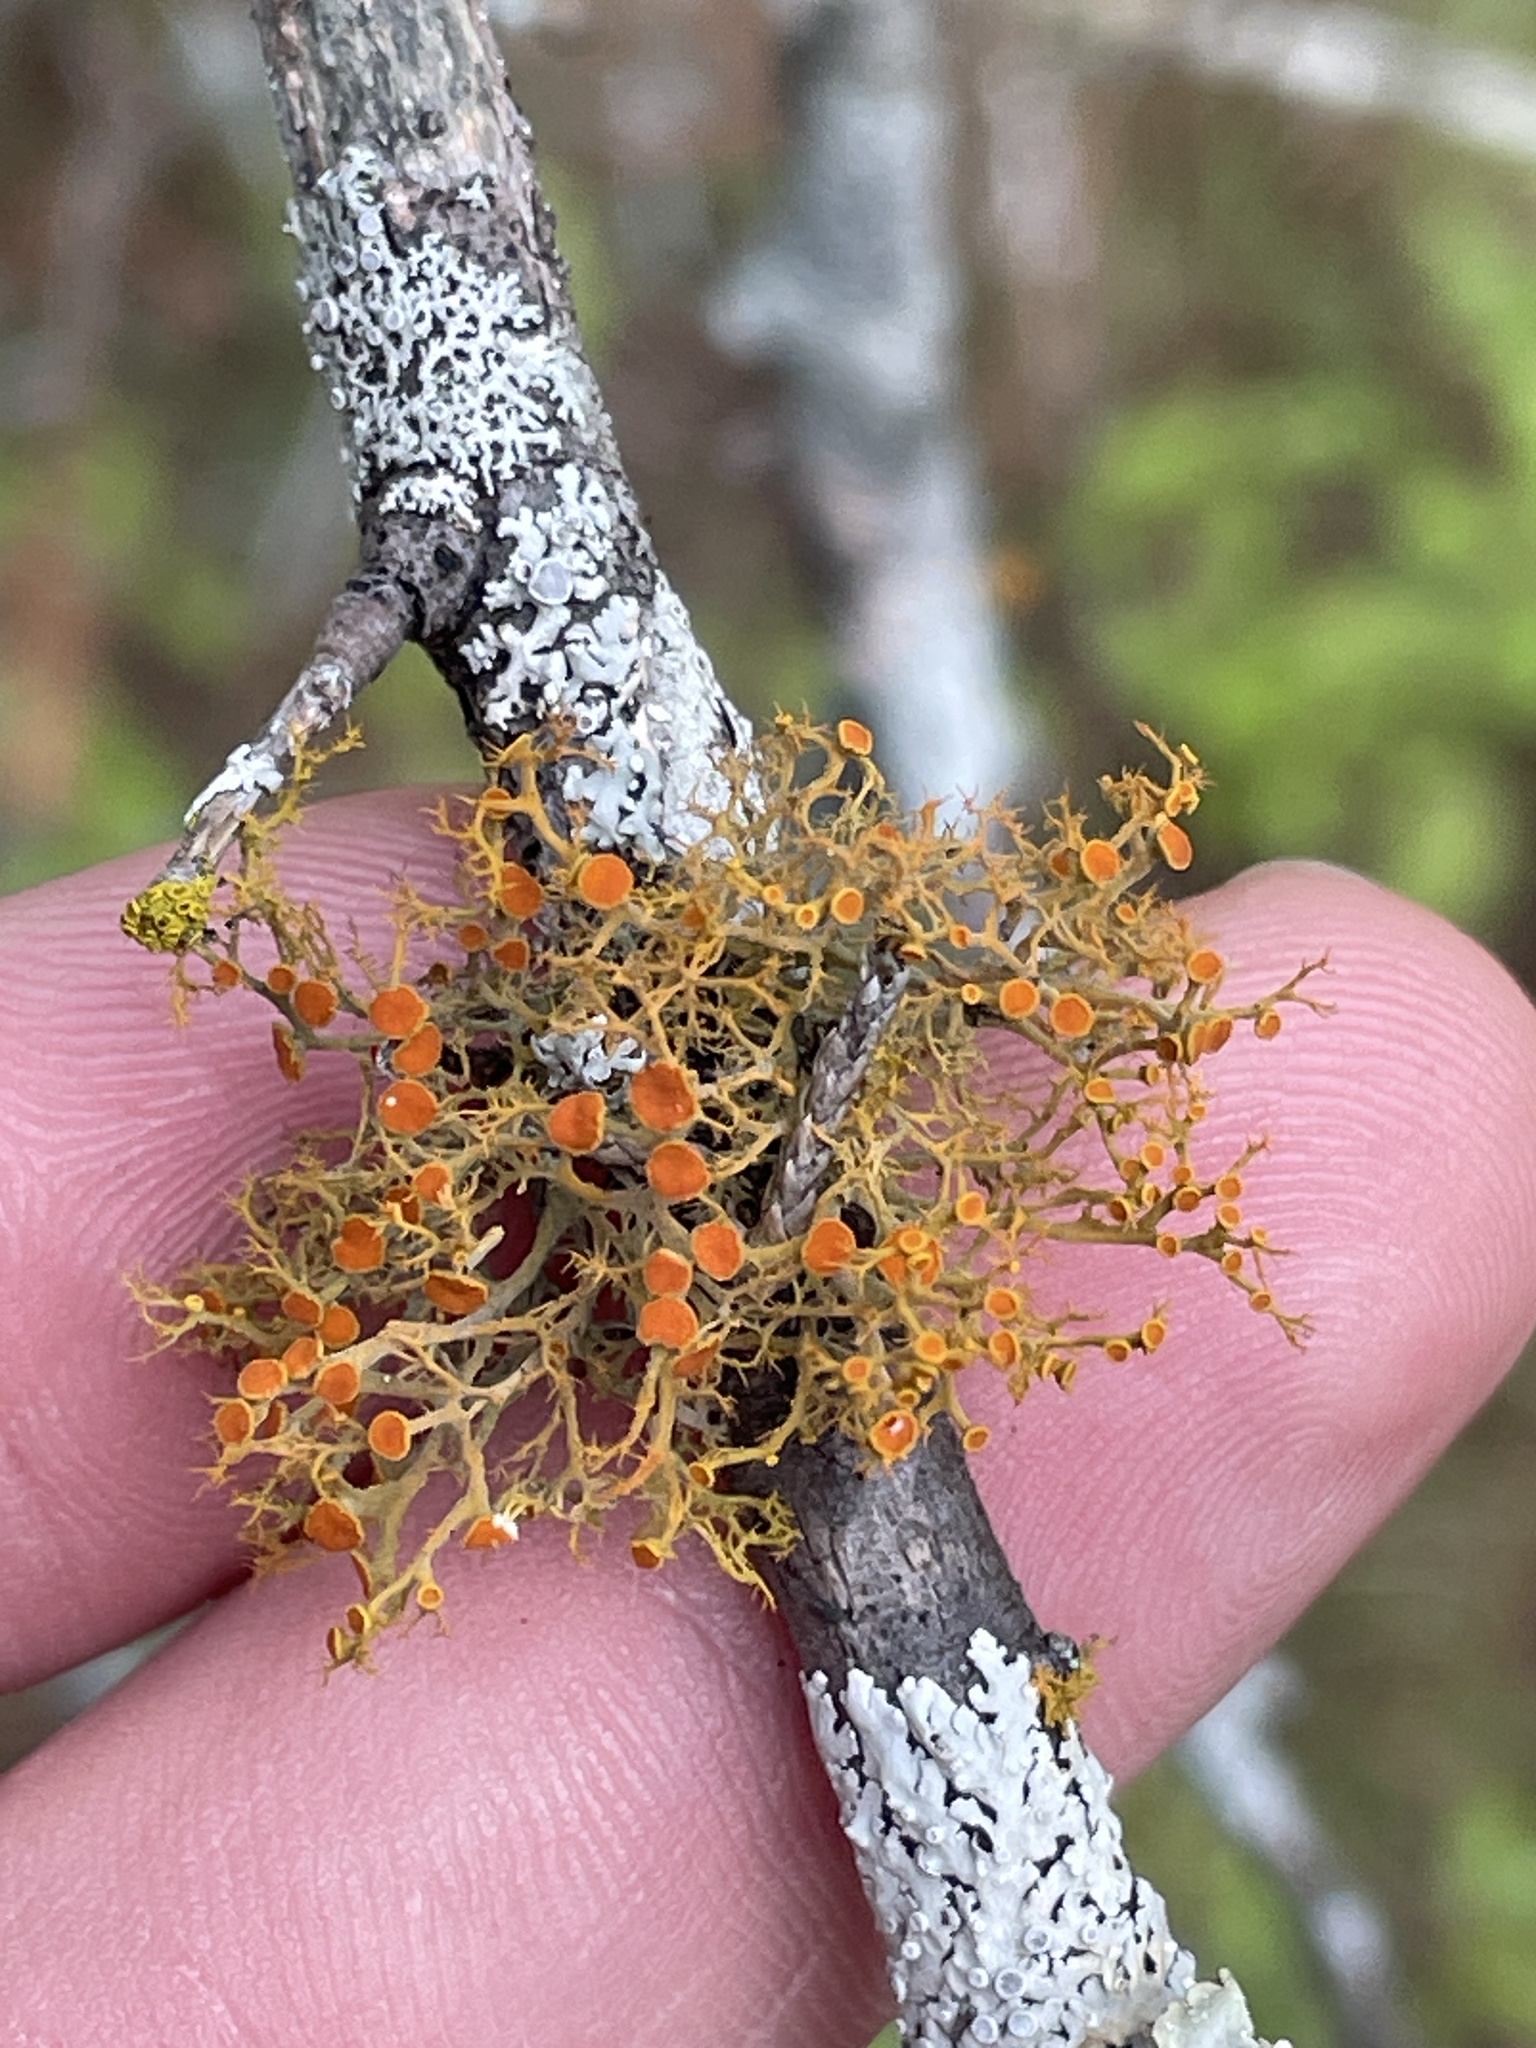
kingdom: Fungi
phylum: Ascomycota
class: Lecanoromycetes
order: Teloschistales
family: Teloschistaceae
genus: Teloschistes
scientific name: Teloschistes exilis
